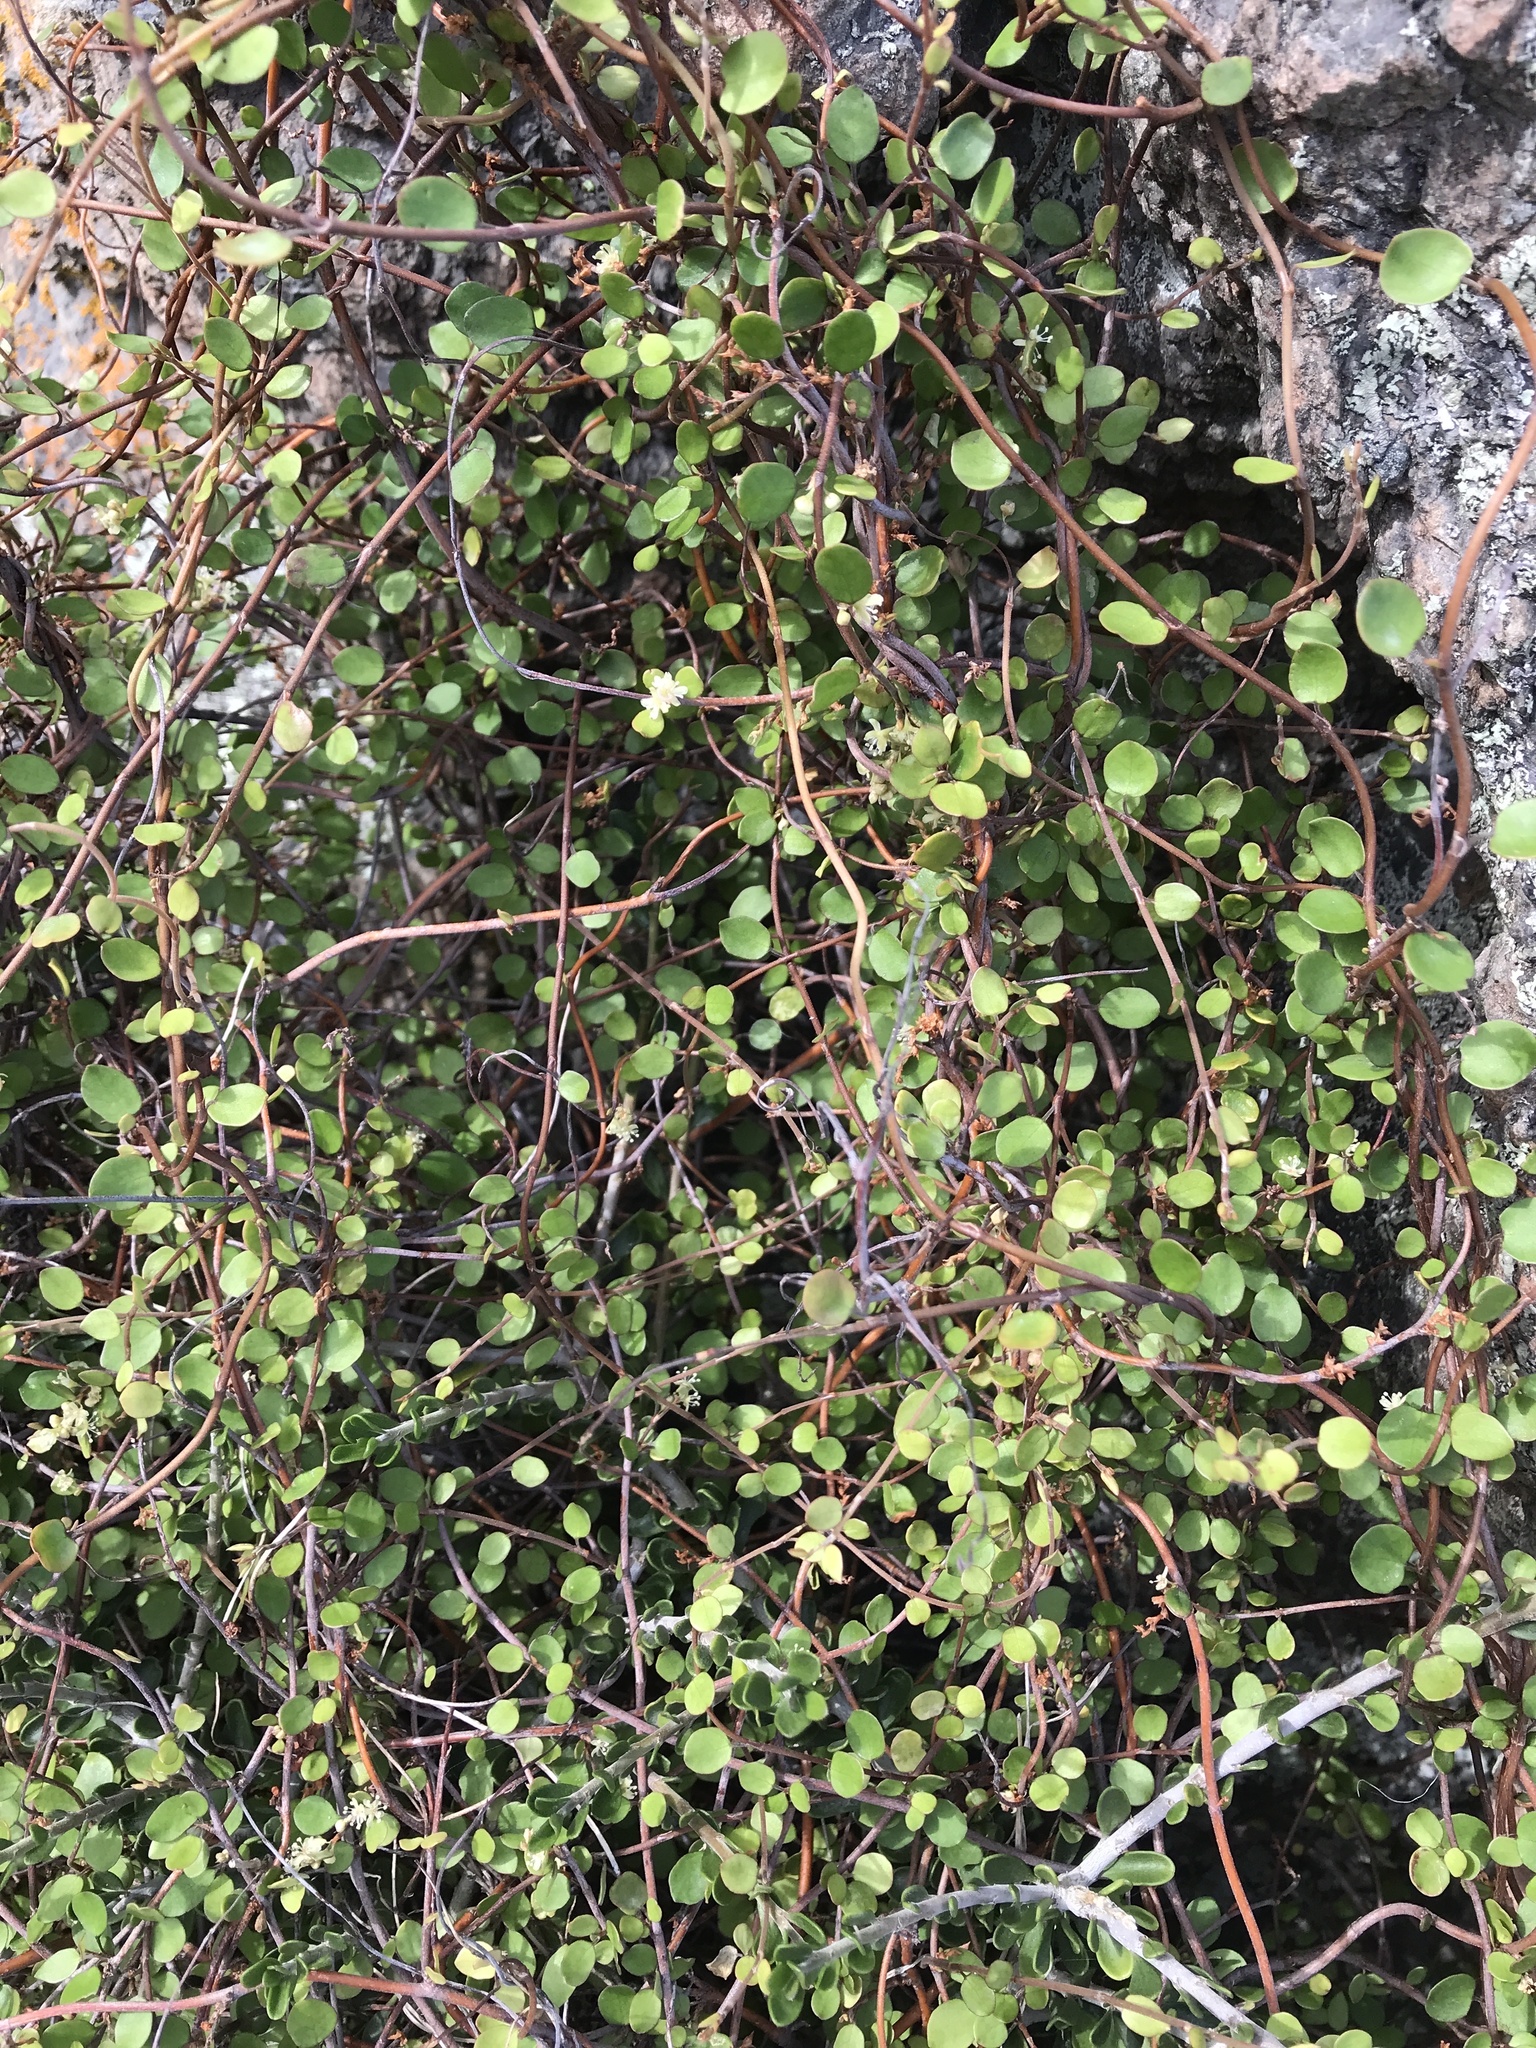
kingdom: Plantae
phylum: Tracheophyta
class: Magnoliopsida
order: Caryophyllales
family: Polygonaceae
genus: Muehlenbeckia
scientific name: Muehlenbeckia complexa
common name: Wireplant
